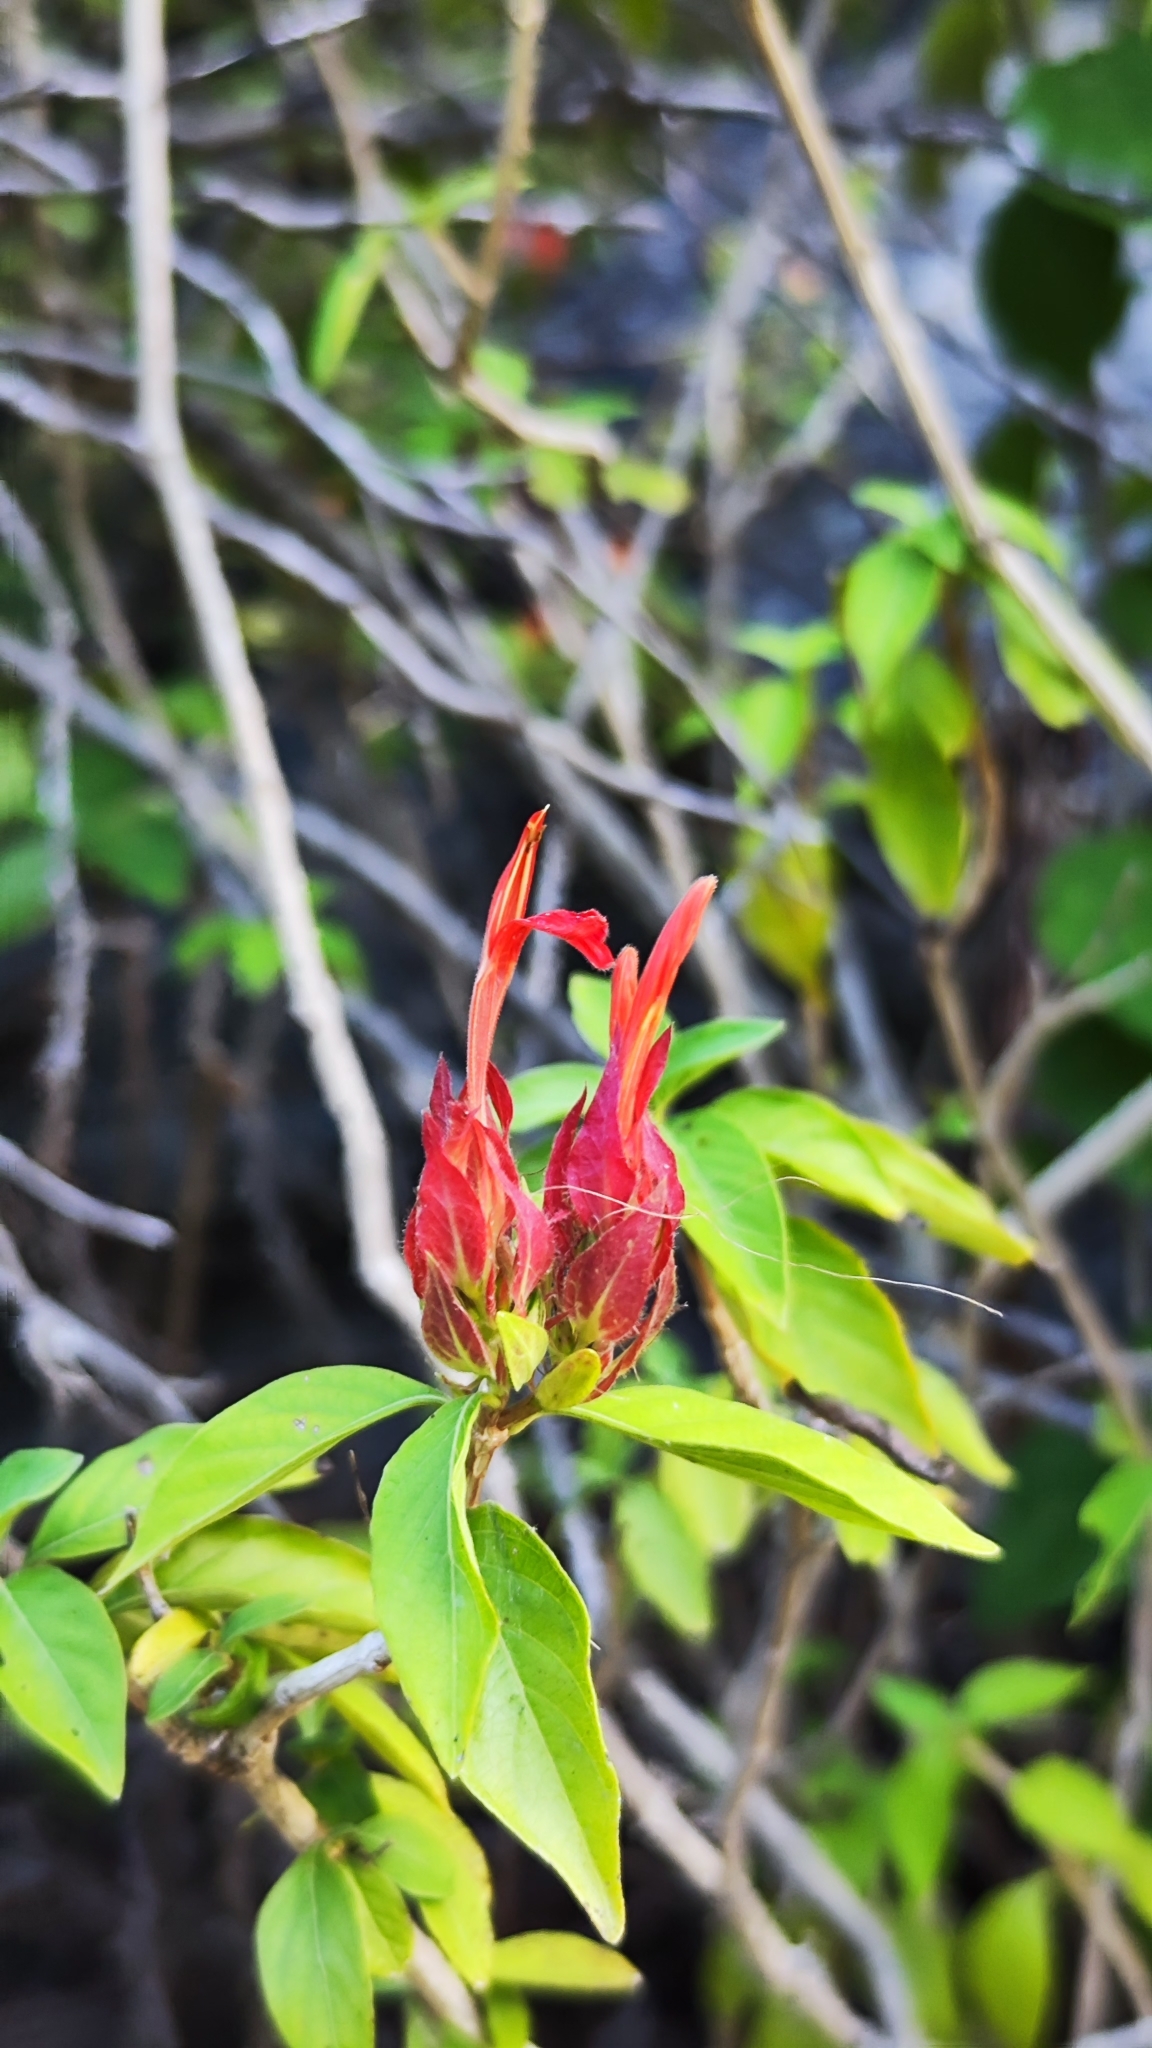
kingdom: Plantae
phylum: Tracheophyta
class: Magnoliopsida
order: Lamiales
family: Acanthaceae
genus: Justicia
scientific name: Justicia rubrobracteata
